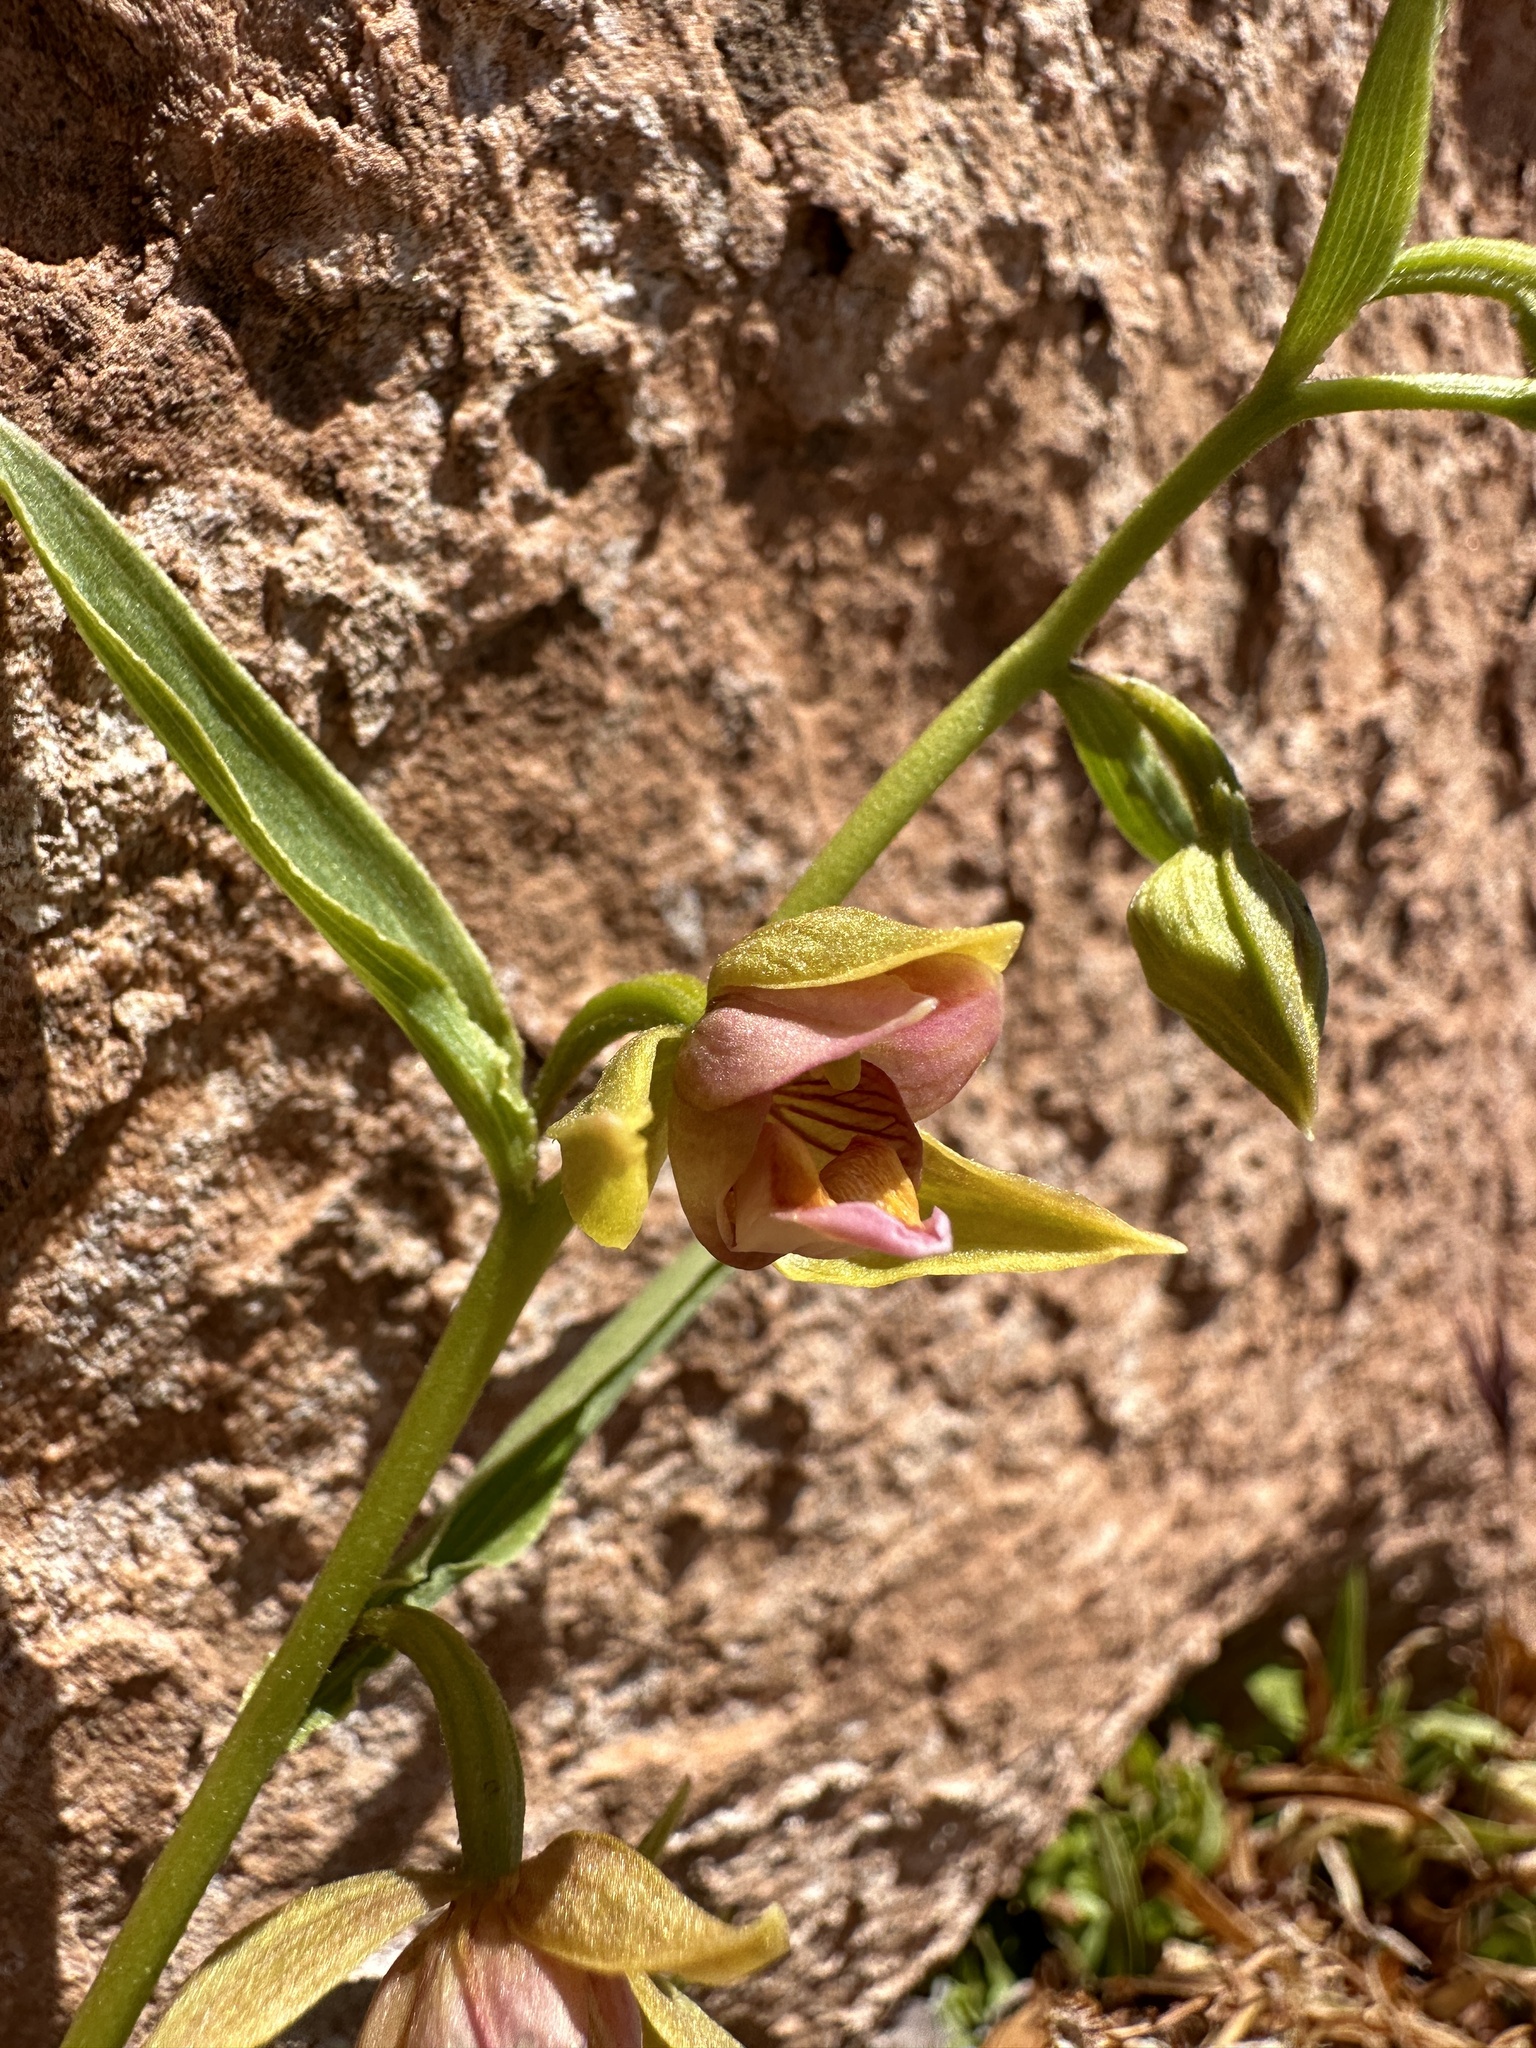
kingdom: Plantae
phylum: Tracheophyta
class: Liliopsida
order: Asparagales
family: Orchidaceae
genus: Epipactis
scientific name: Epipactis gigantea
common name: Chatterbox
